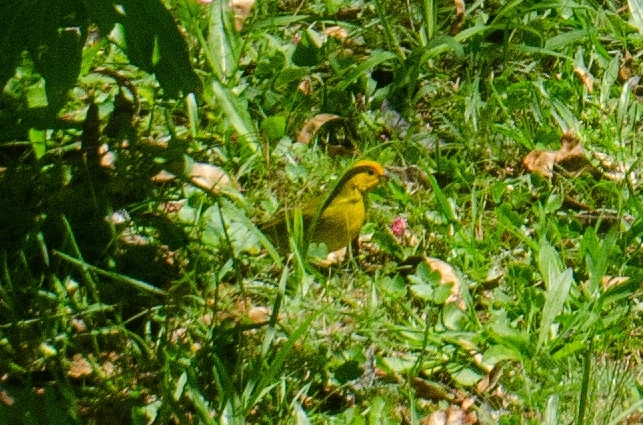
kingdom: Animalia
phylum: Chordata
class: Aves
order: Passeriformes
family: Thraupidae
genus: Sicalis
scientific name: Sicalis flaveola
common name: Saffron finch
